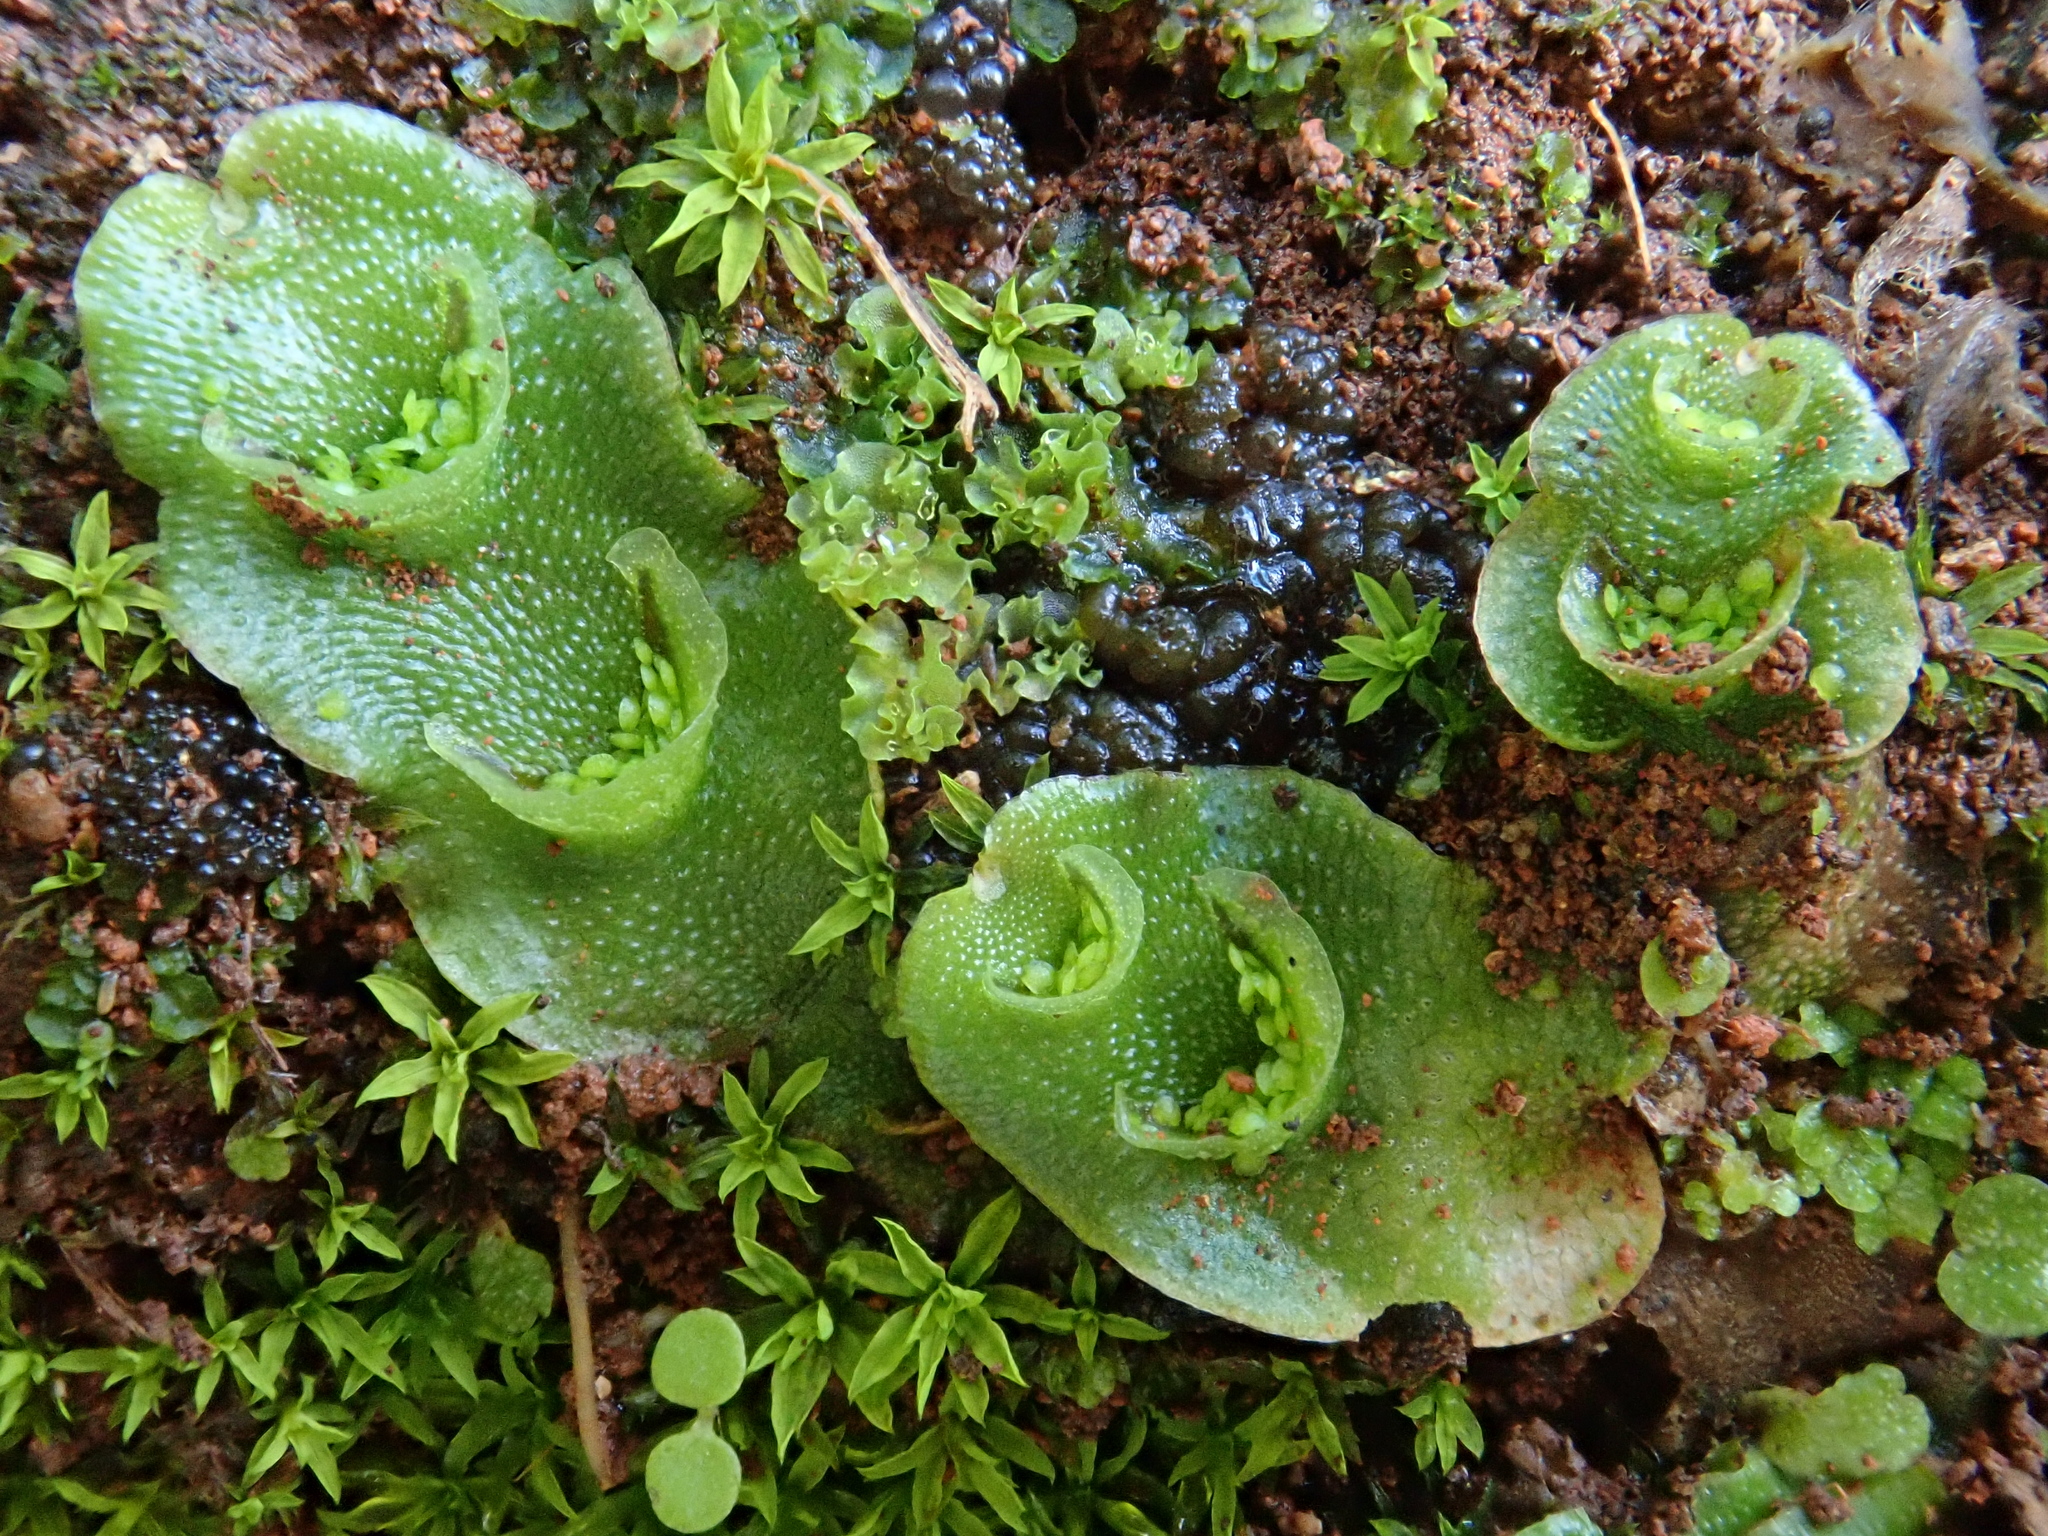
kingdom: Plantae
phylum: Marchantiophyta
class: Marchantiopsida
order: Lunulariales
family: Lunulariaceae
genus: Lunularia
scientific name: Lunularia cruciata
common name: Crescent-cup liverwort
